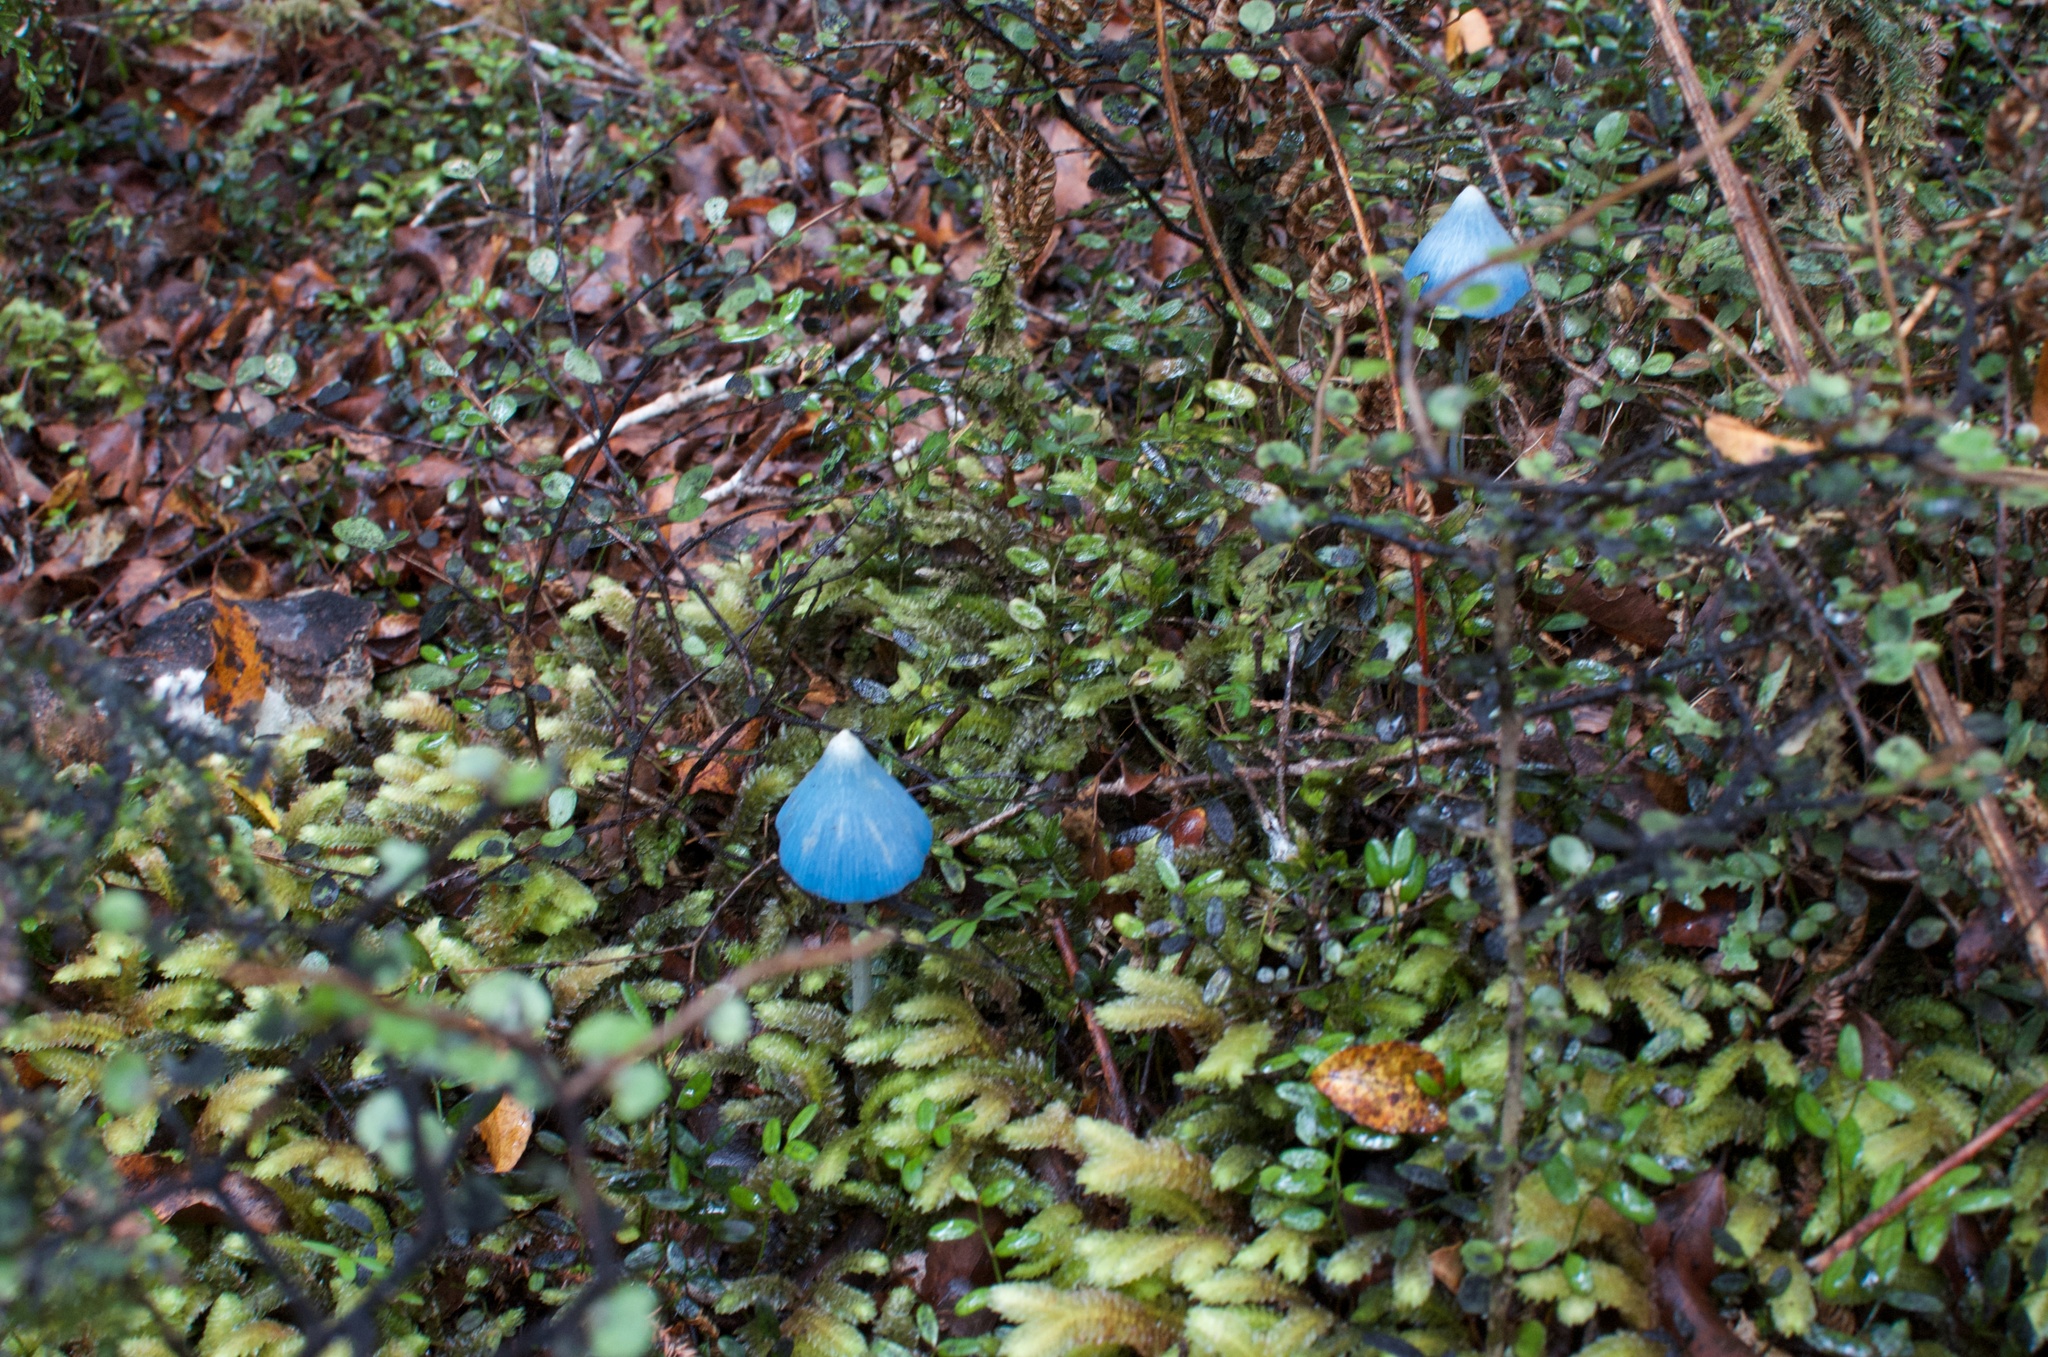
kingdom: Fungi
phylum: Basidiomycota
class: Agaricomycetes
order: Agaricales
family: Entolomataceae
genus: Entoloma
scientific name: Entoloma hochstetteri
